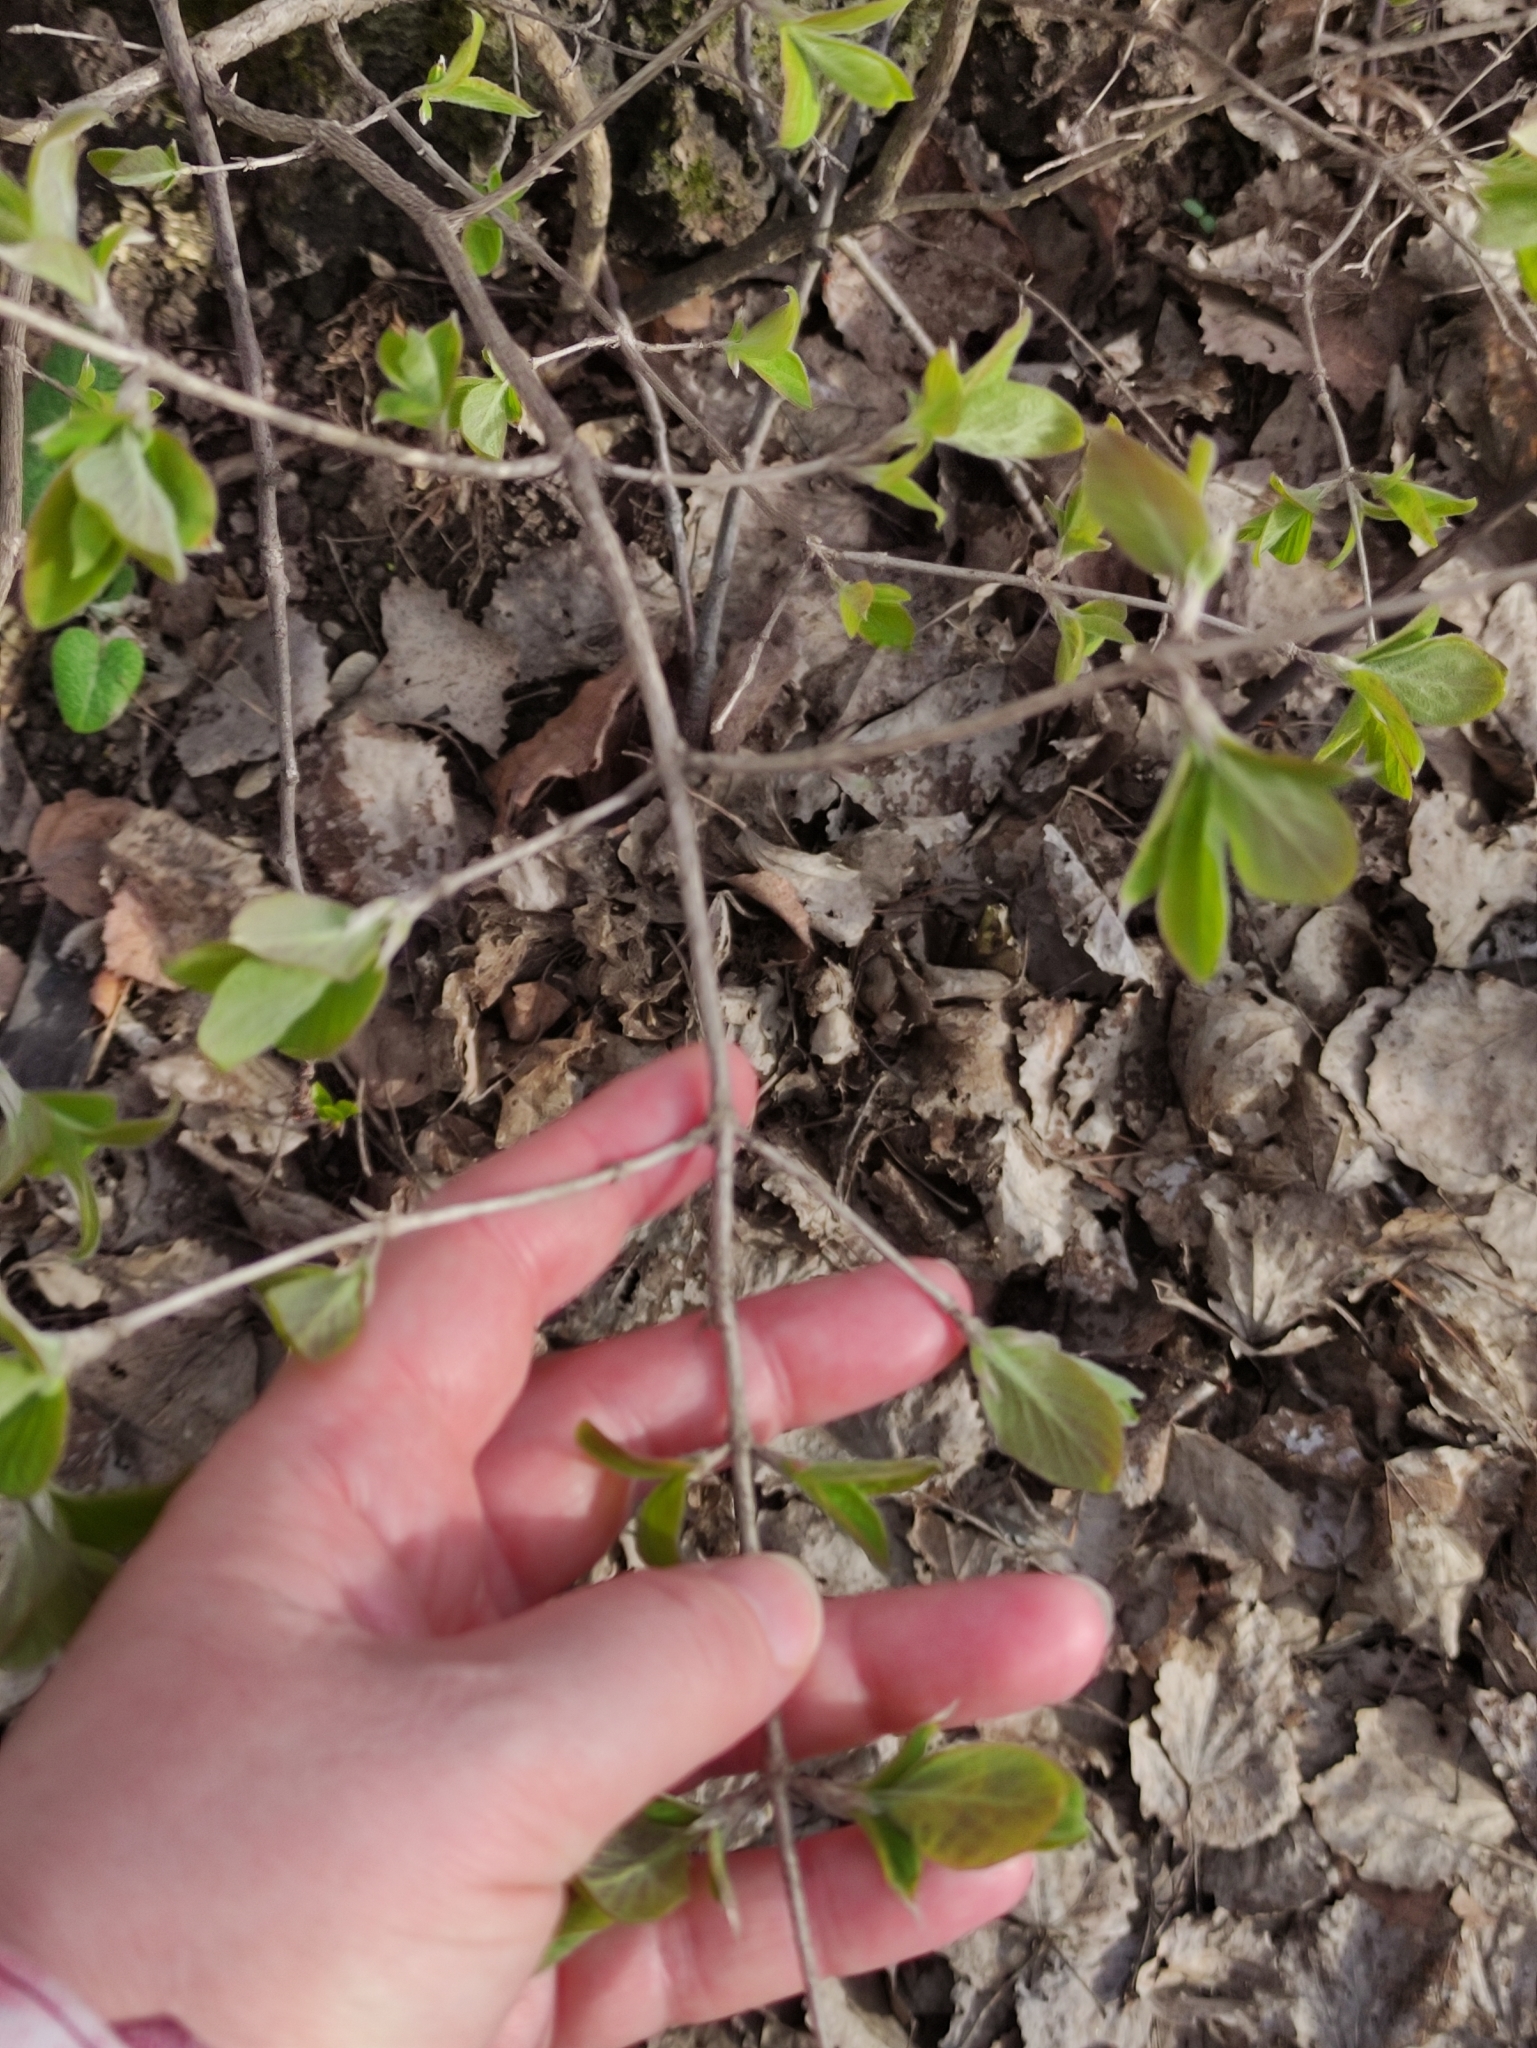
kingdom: Plantae
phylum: Tracheophyta
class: Magnoliopsida
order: Dipsacales
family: Caprifoliaceae
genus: Lonicera
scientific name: Lonicera xylosteum
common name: Fly honeysuckle
